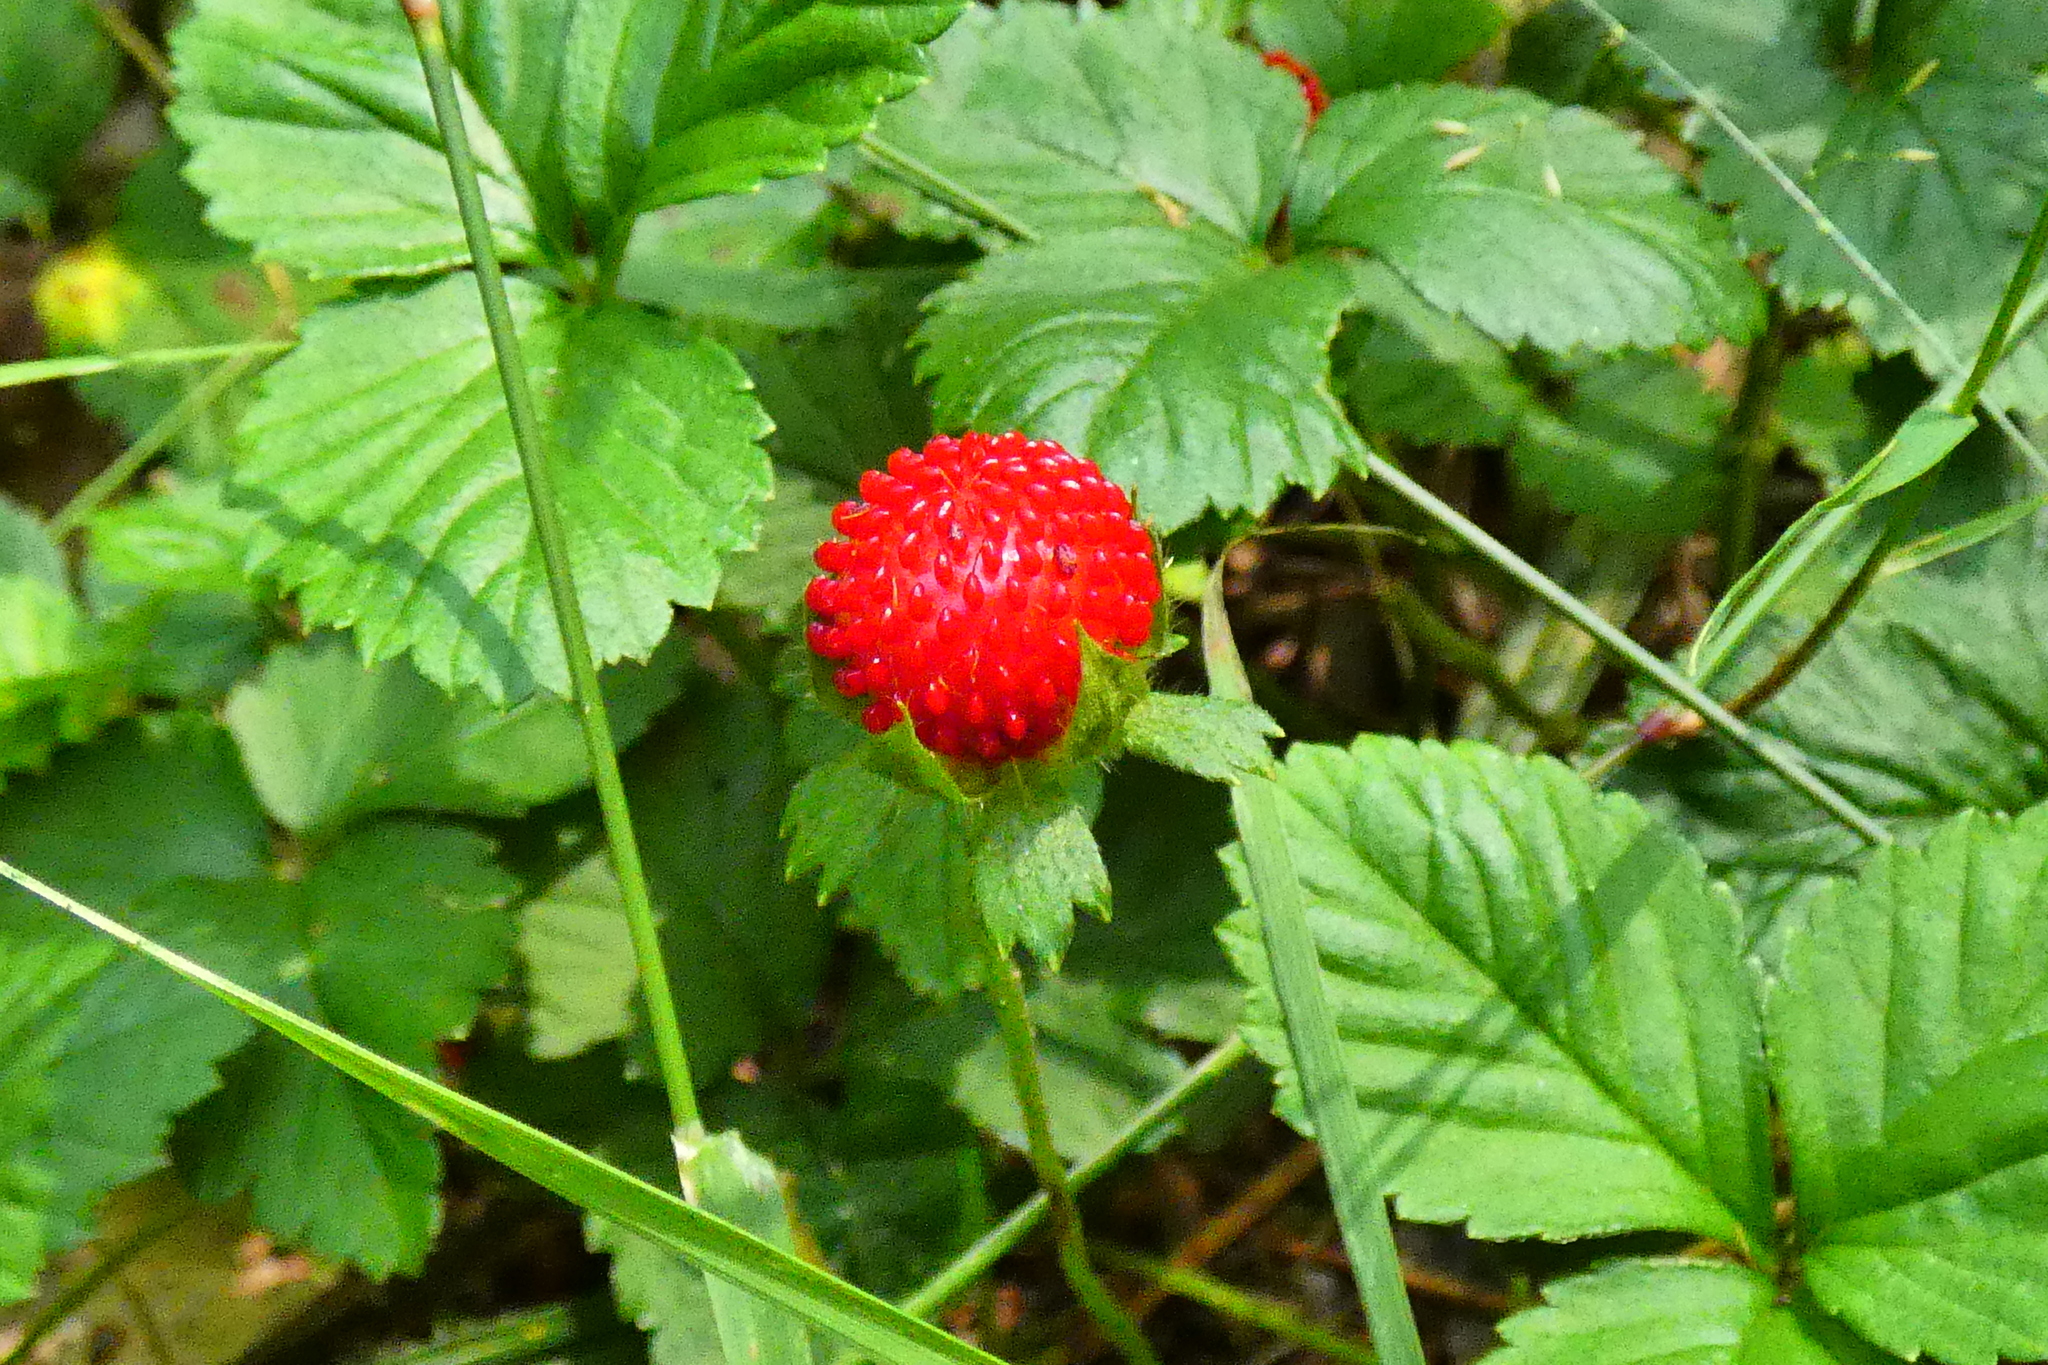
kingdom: Plantae
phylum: Tracheophyta
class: Magnoliopsida
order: Rosales
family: Rosaceae
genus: Potentilla
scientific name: Potentilla indica
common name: Yellow-flowered strawberry
